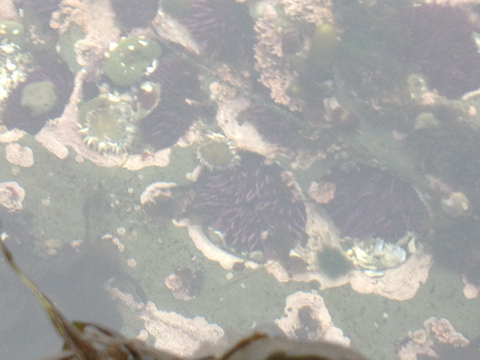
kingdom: Animalia
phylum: Echinodermata
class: Echinoidea
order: Camarodonta
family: Strongylocentrotidae
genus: Strongylocentrotus
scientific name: Strongylocentrotus purpuratus
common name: Purple sea urchin
